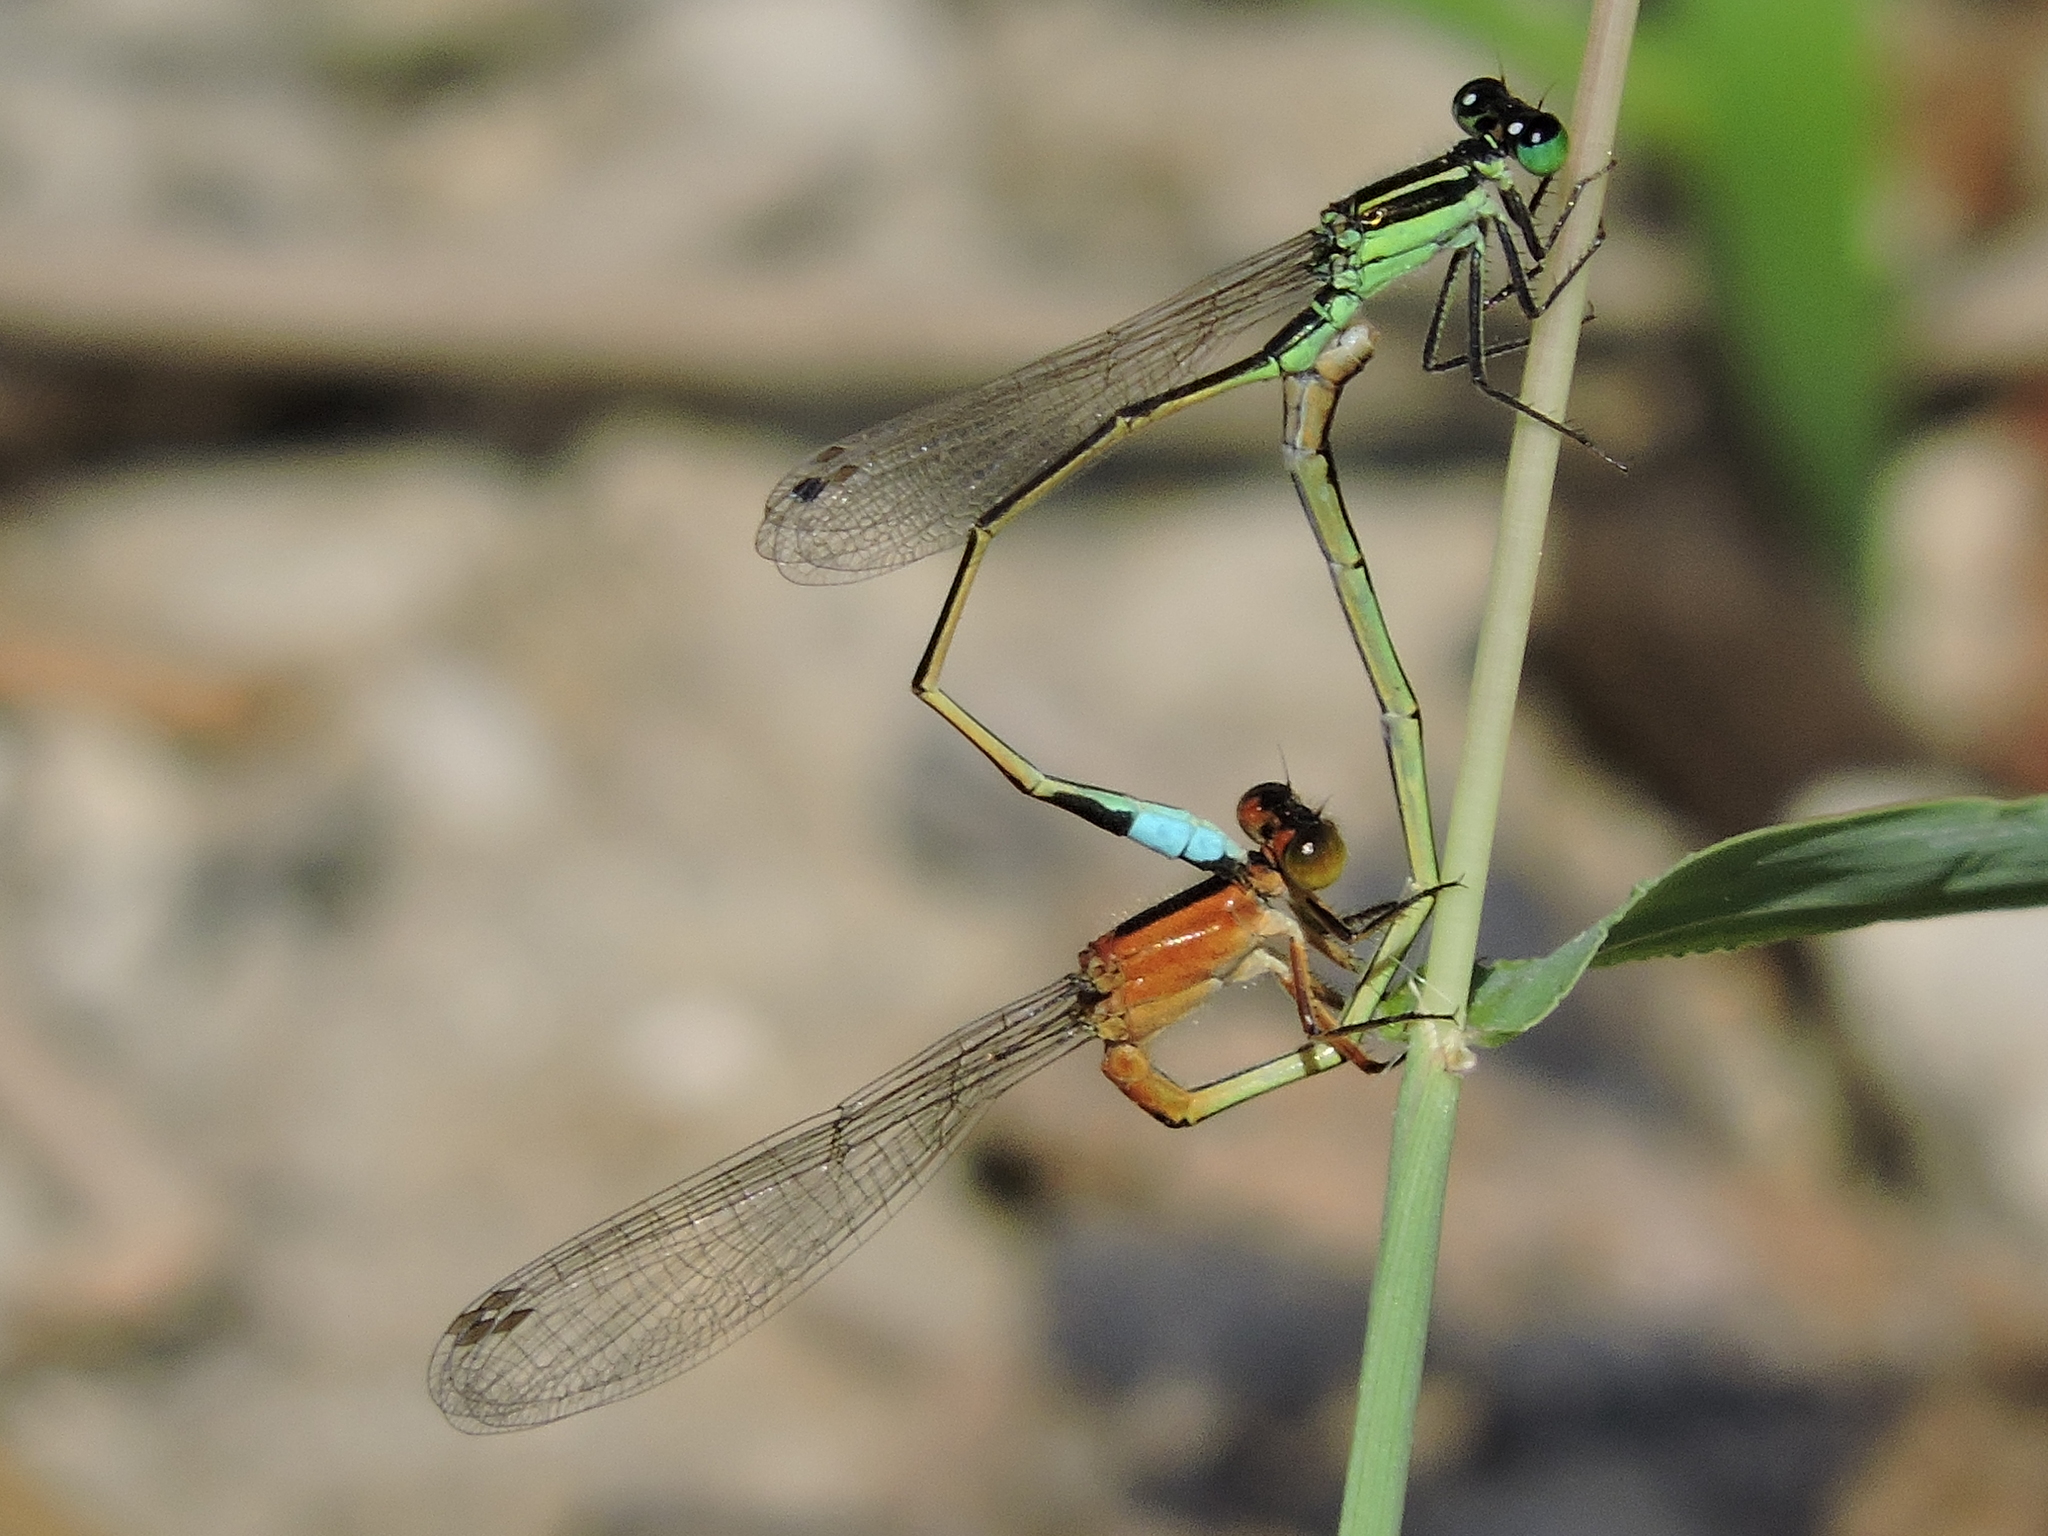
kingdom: Animalia
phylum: Arthropoda
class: Insecta
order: Odonata
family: Coenagrionidae
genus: Ischnura
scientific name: Ischnura ramburii
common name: Rambur's forktail
